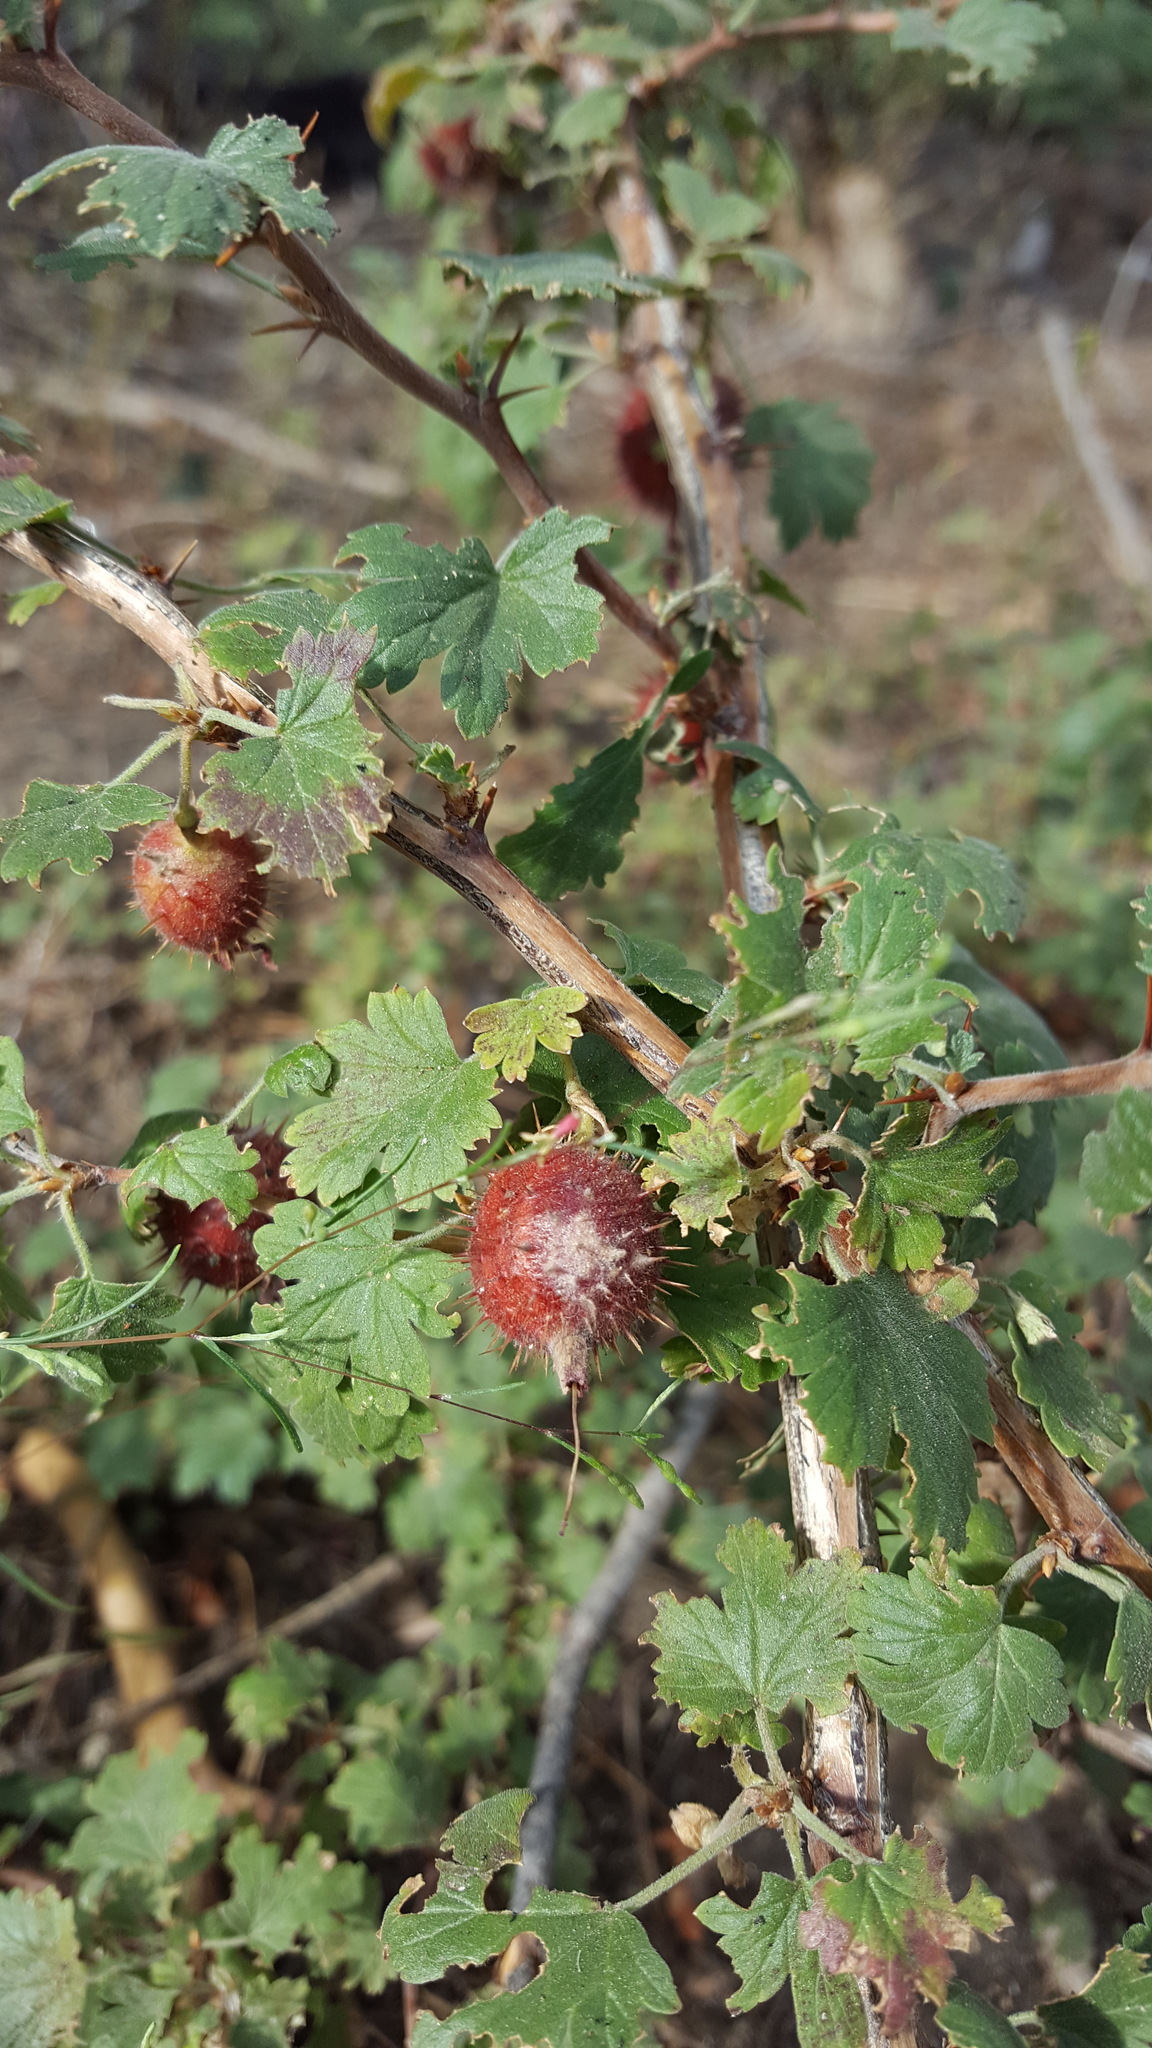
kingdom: Plantae
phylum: Tracheophyta
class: Magnoliopsida
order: Saxifragales
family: Grossulariaceae
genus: Ribes
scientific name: Ribes roezlii
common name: Sierra gooseberry
